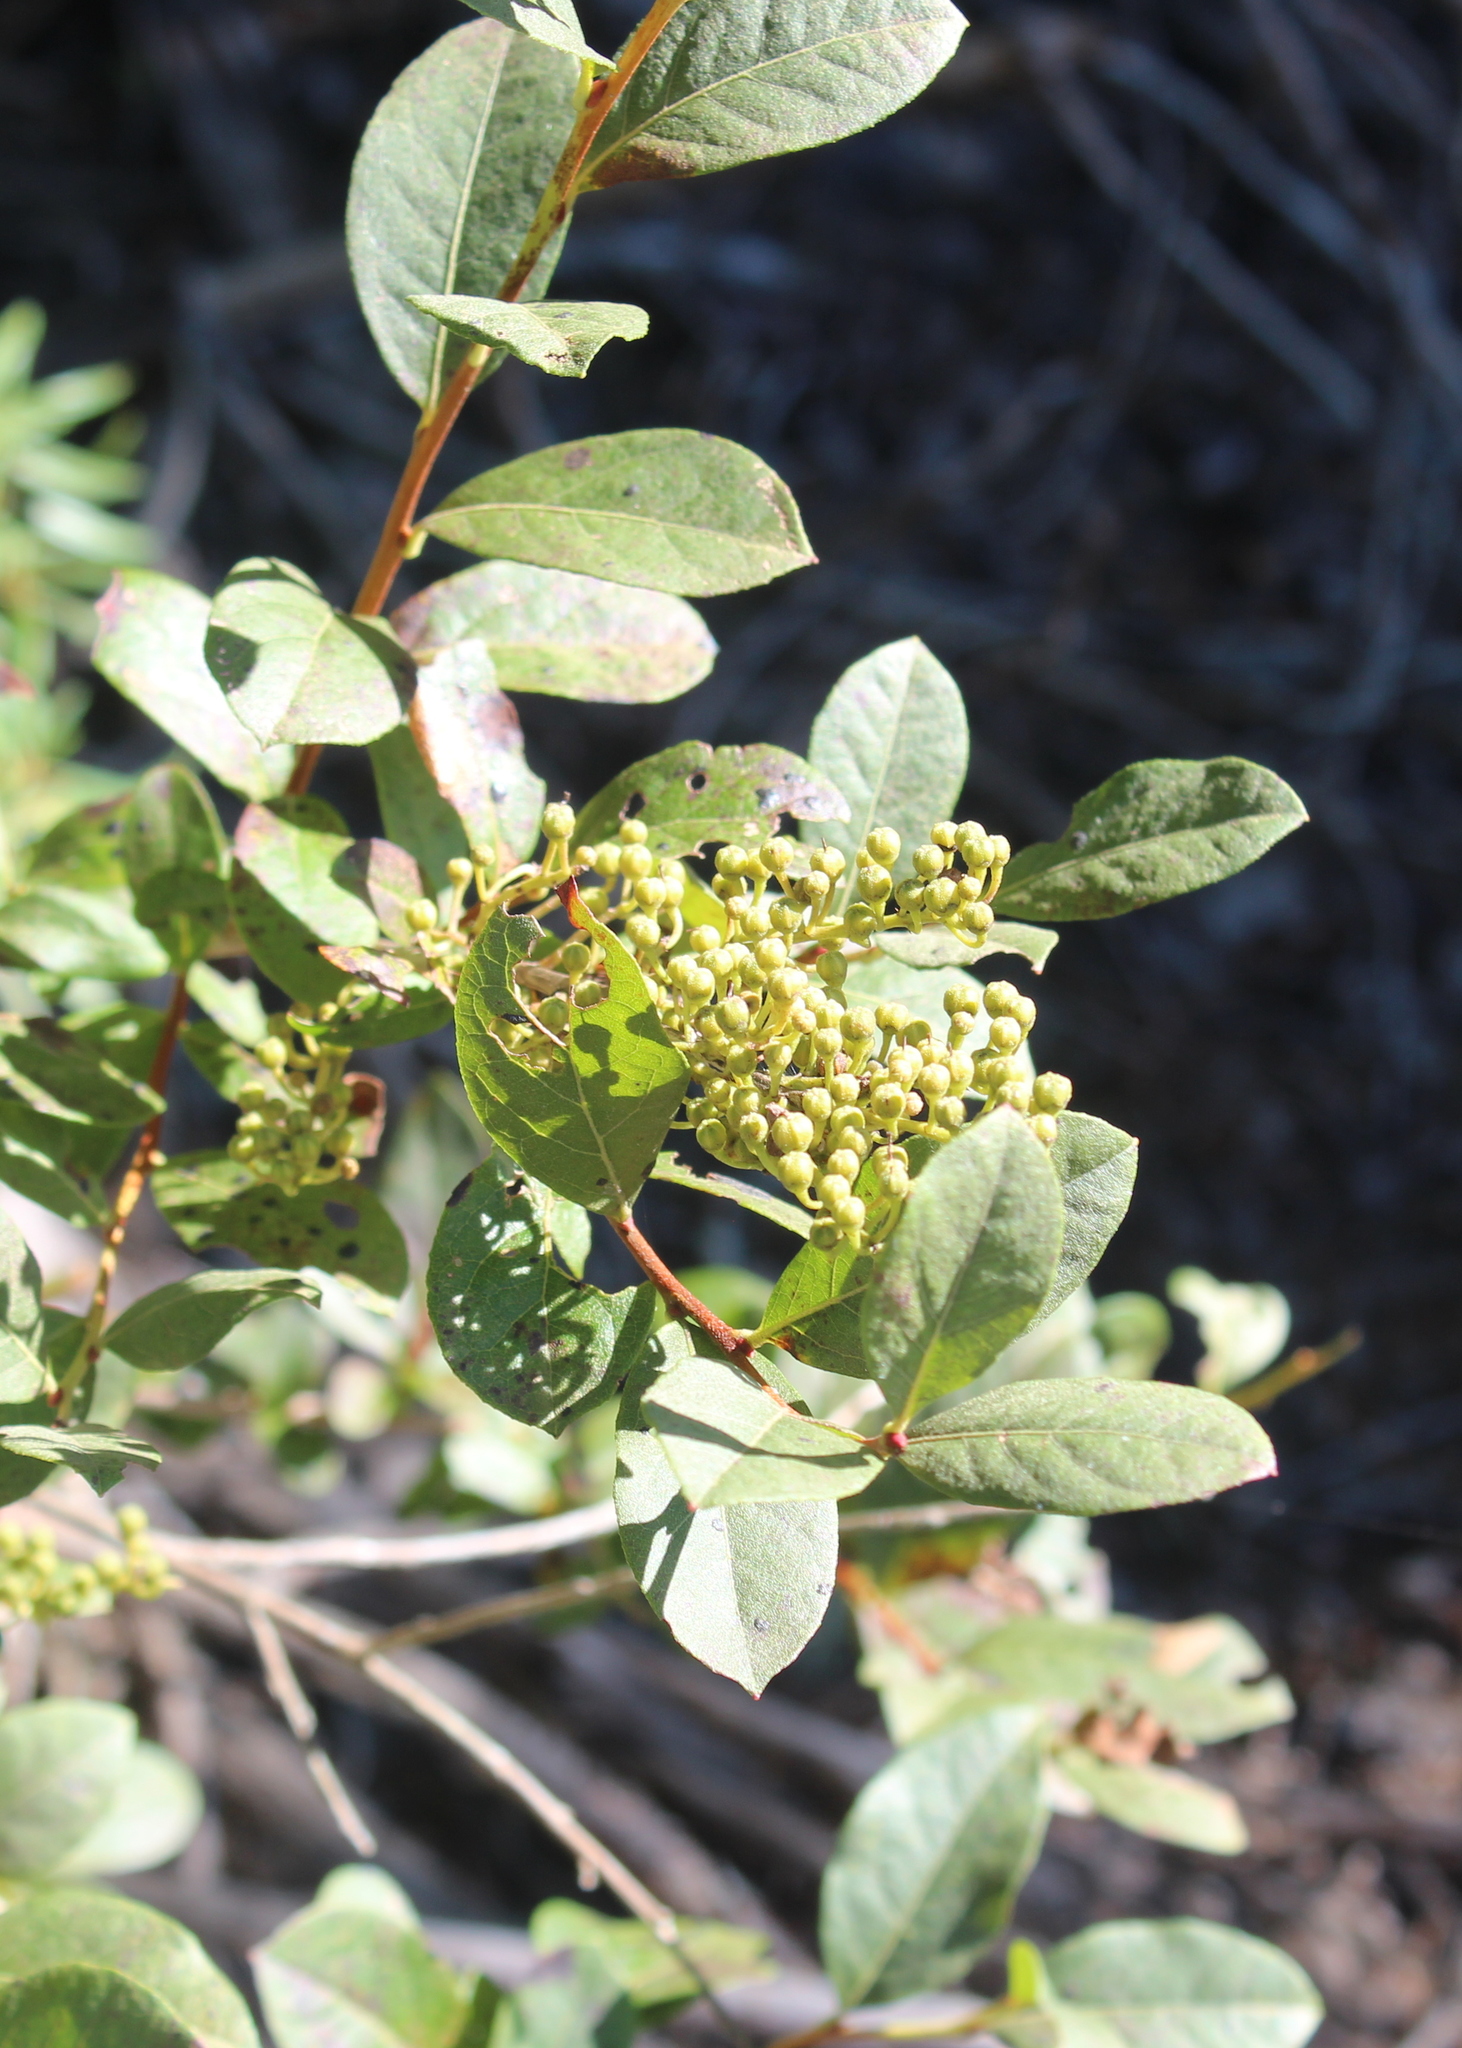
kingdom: Plantae
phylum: Tracheophyta
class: Magnoliopsida
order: Ericales
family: Ericaceae
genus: Lyonia
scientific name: Lyonia ligustrina
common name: Maleberry
